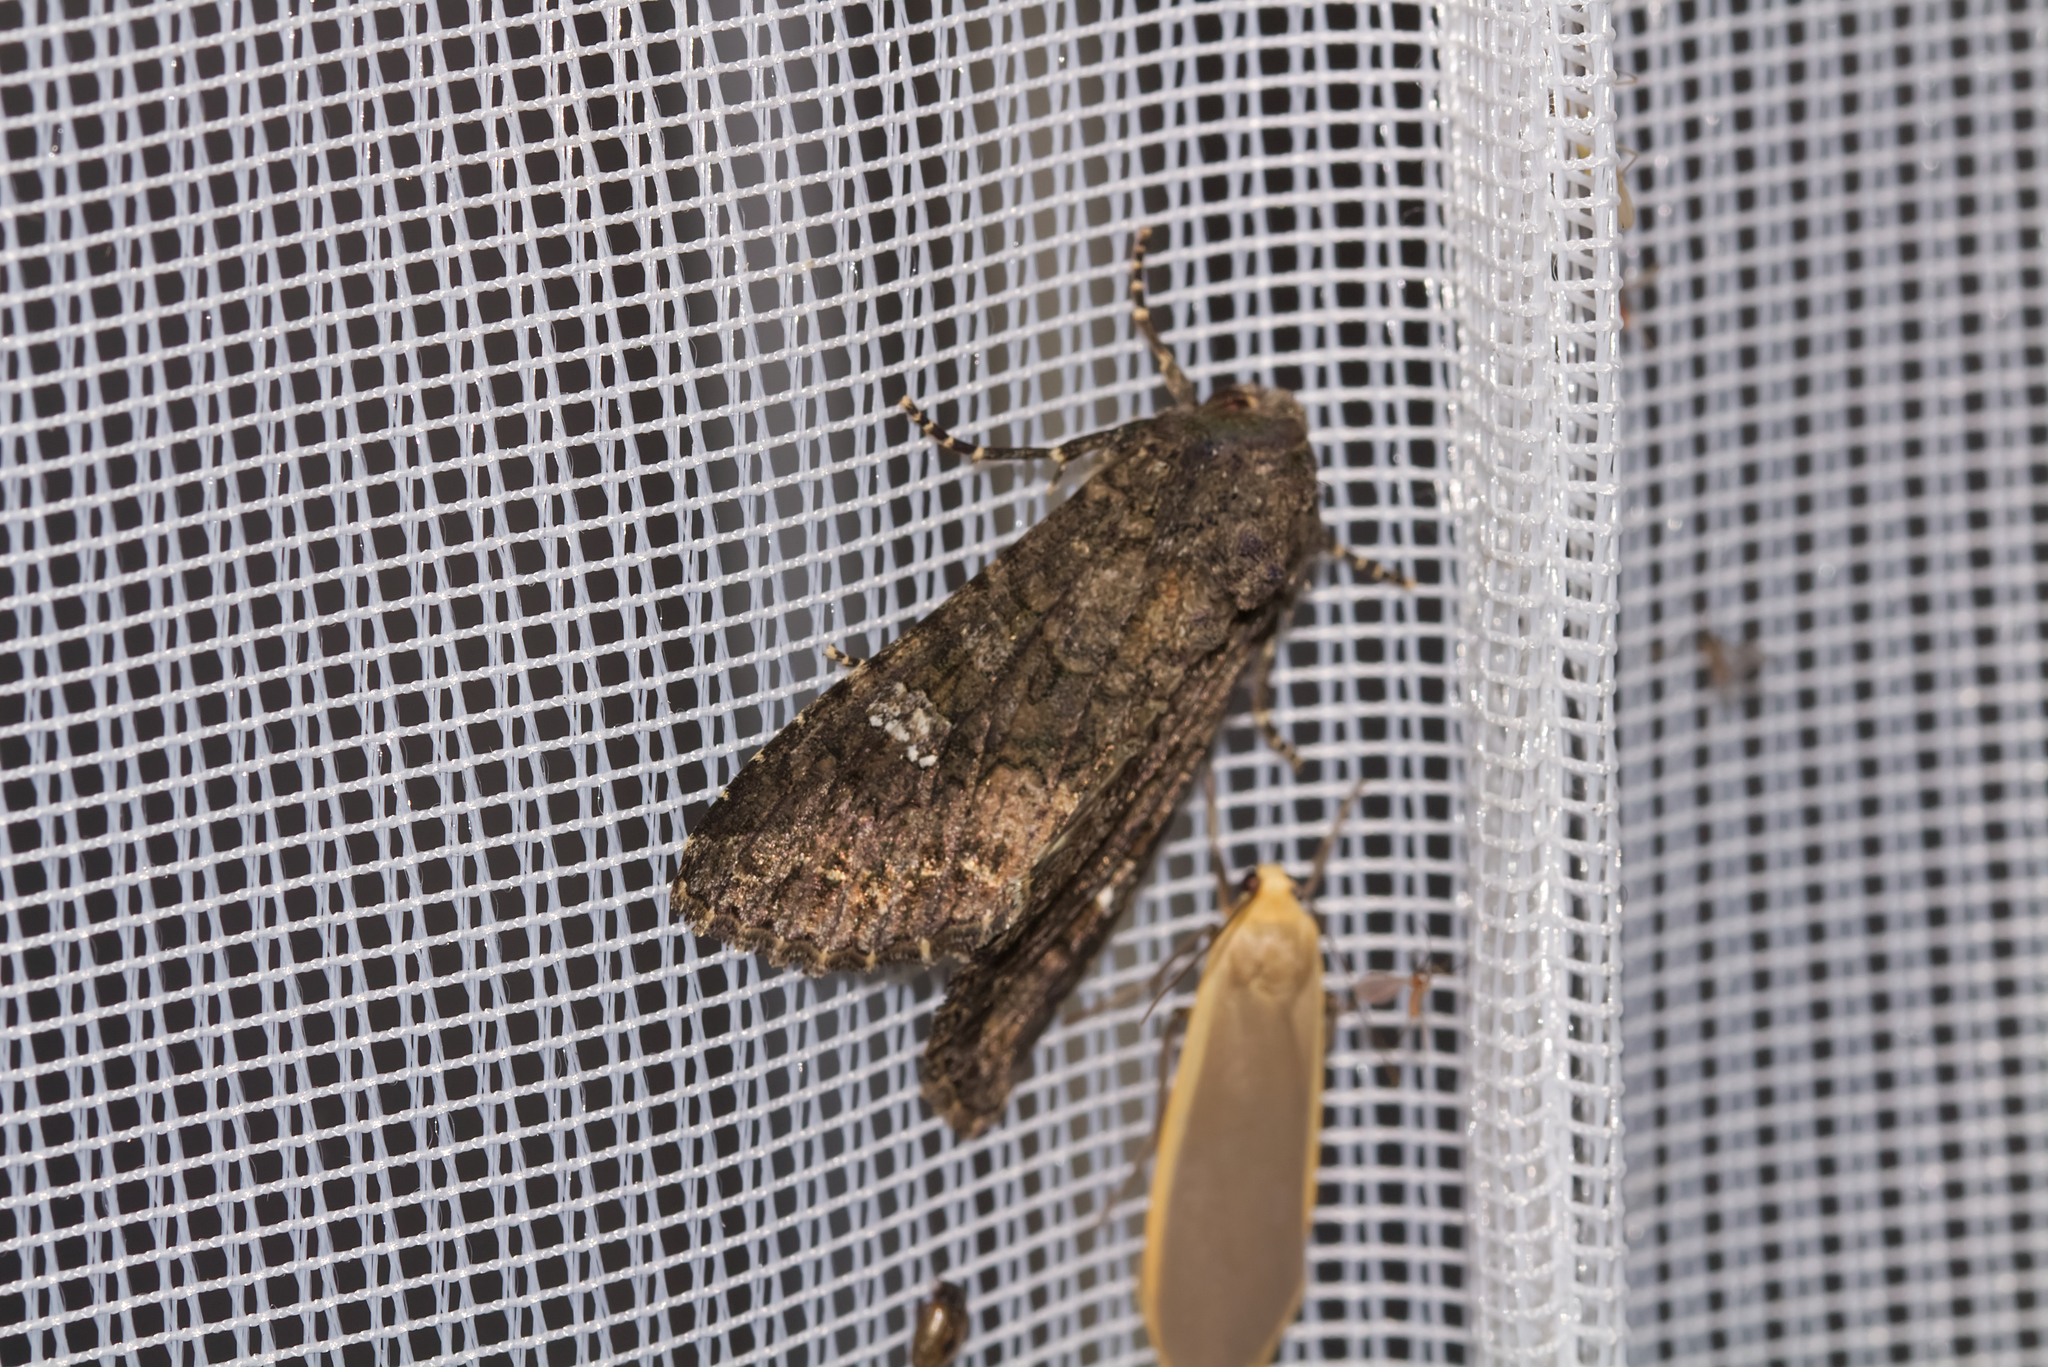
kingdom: Animalia
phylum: Arthropoda
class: Insecta
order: Lepidoptera
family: Noctuidae
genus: Mamestra
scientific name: Mamestra brassicae
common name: Cabbage moth
